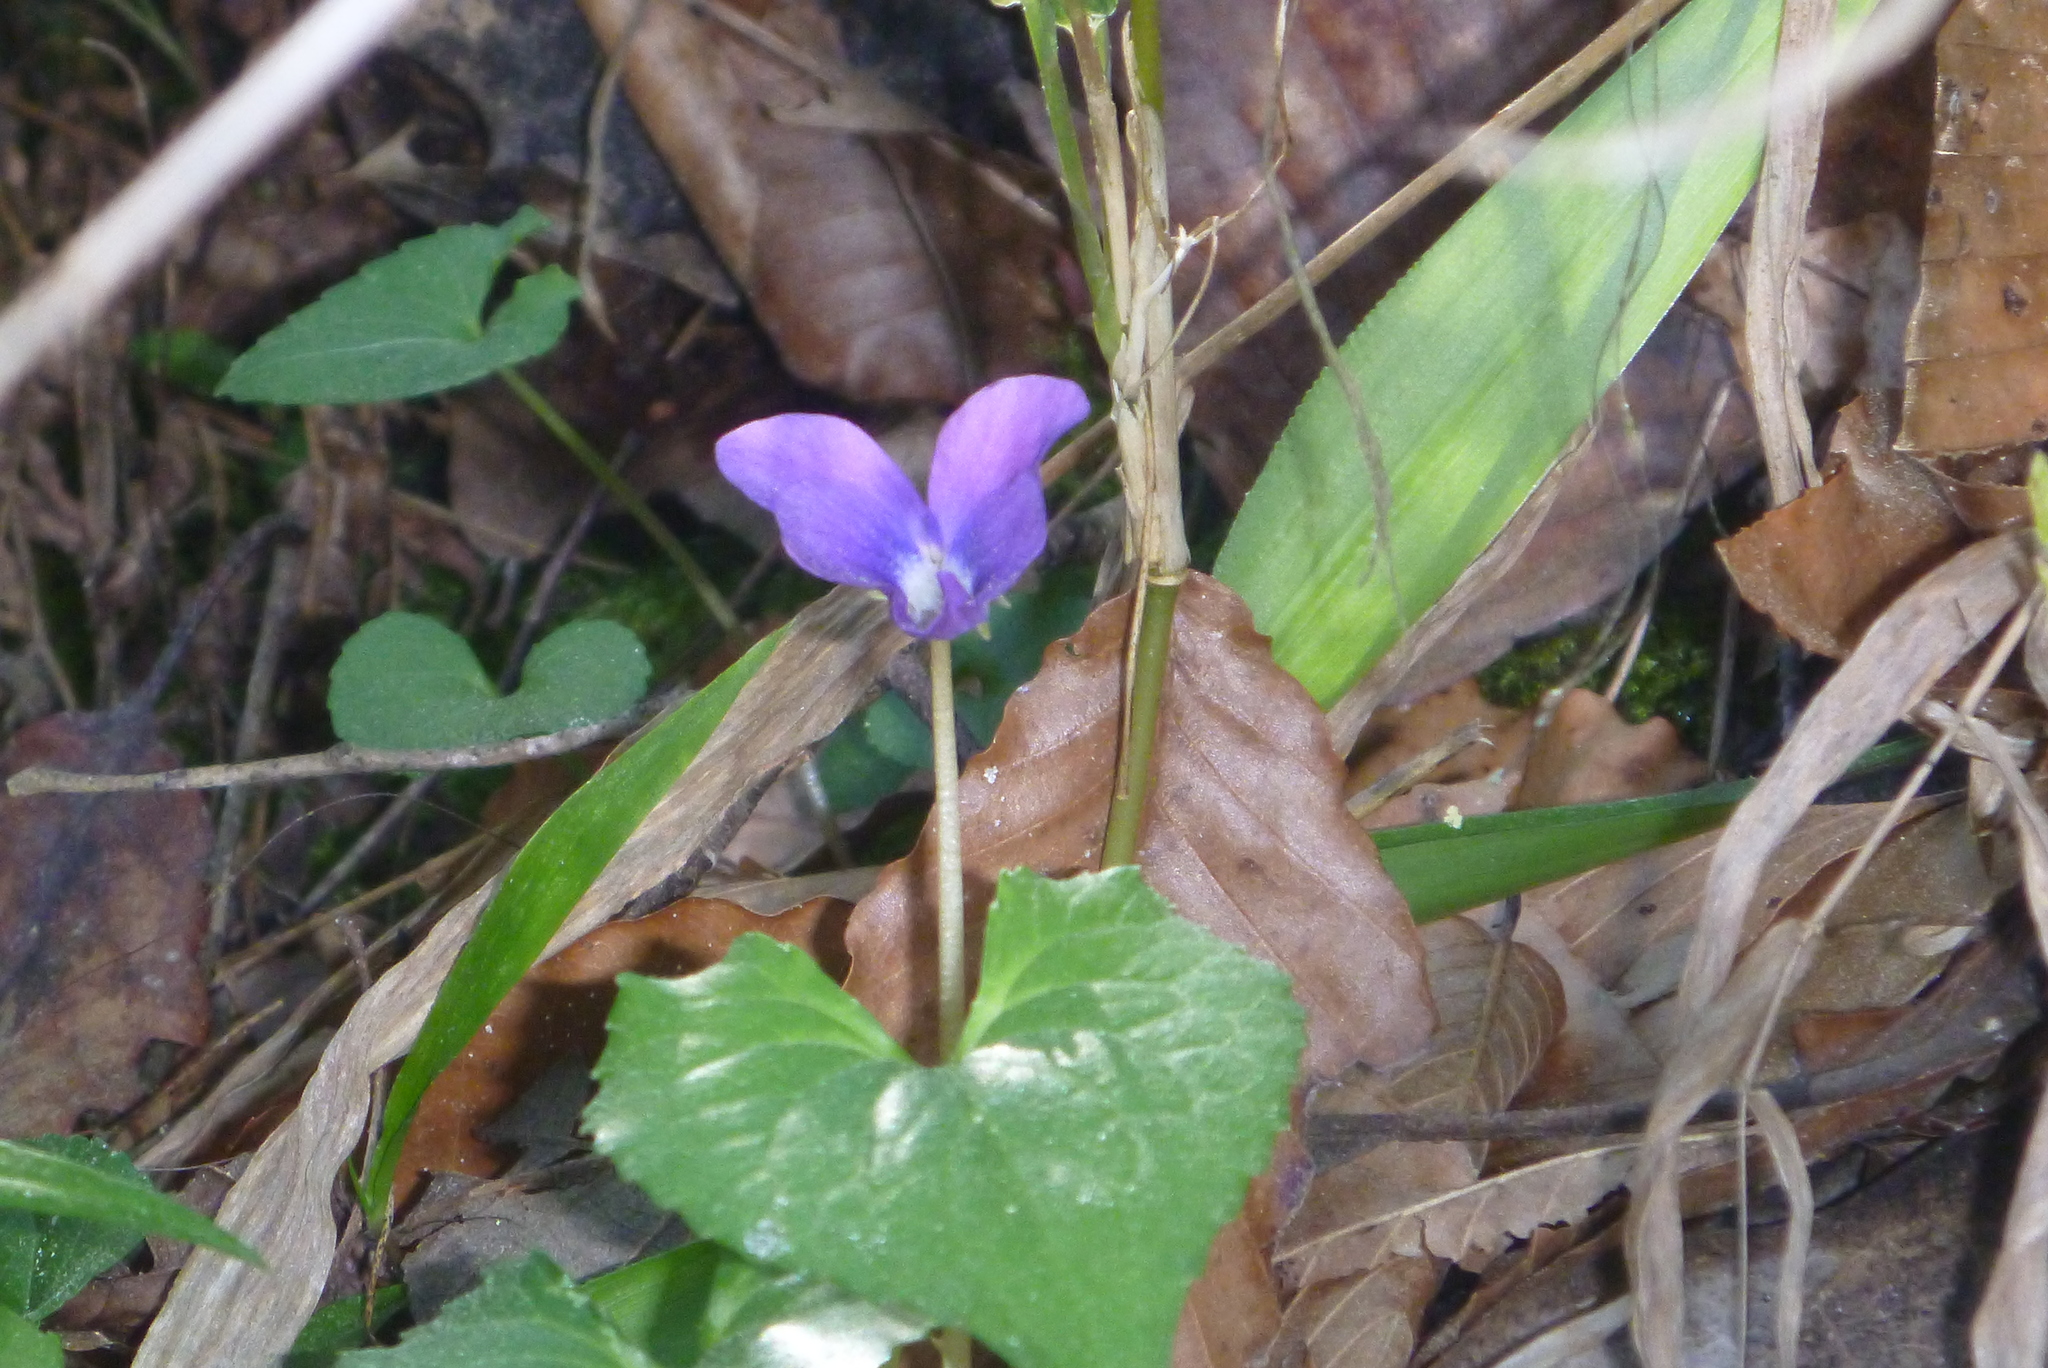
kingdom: Plantae
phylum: Tracheophyta
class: Magnoliopsida
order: Malpighiales
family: Violaceae
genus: Viola
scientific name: Viola sororia
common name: Dooryard violet
